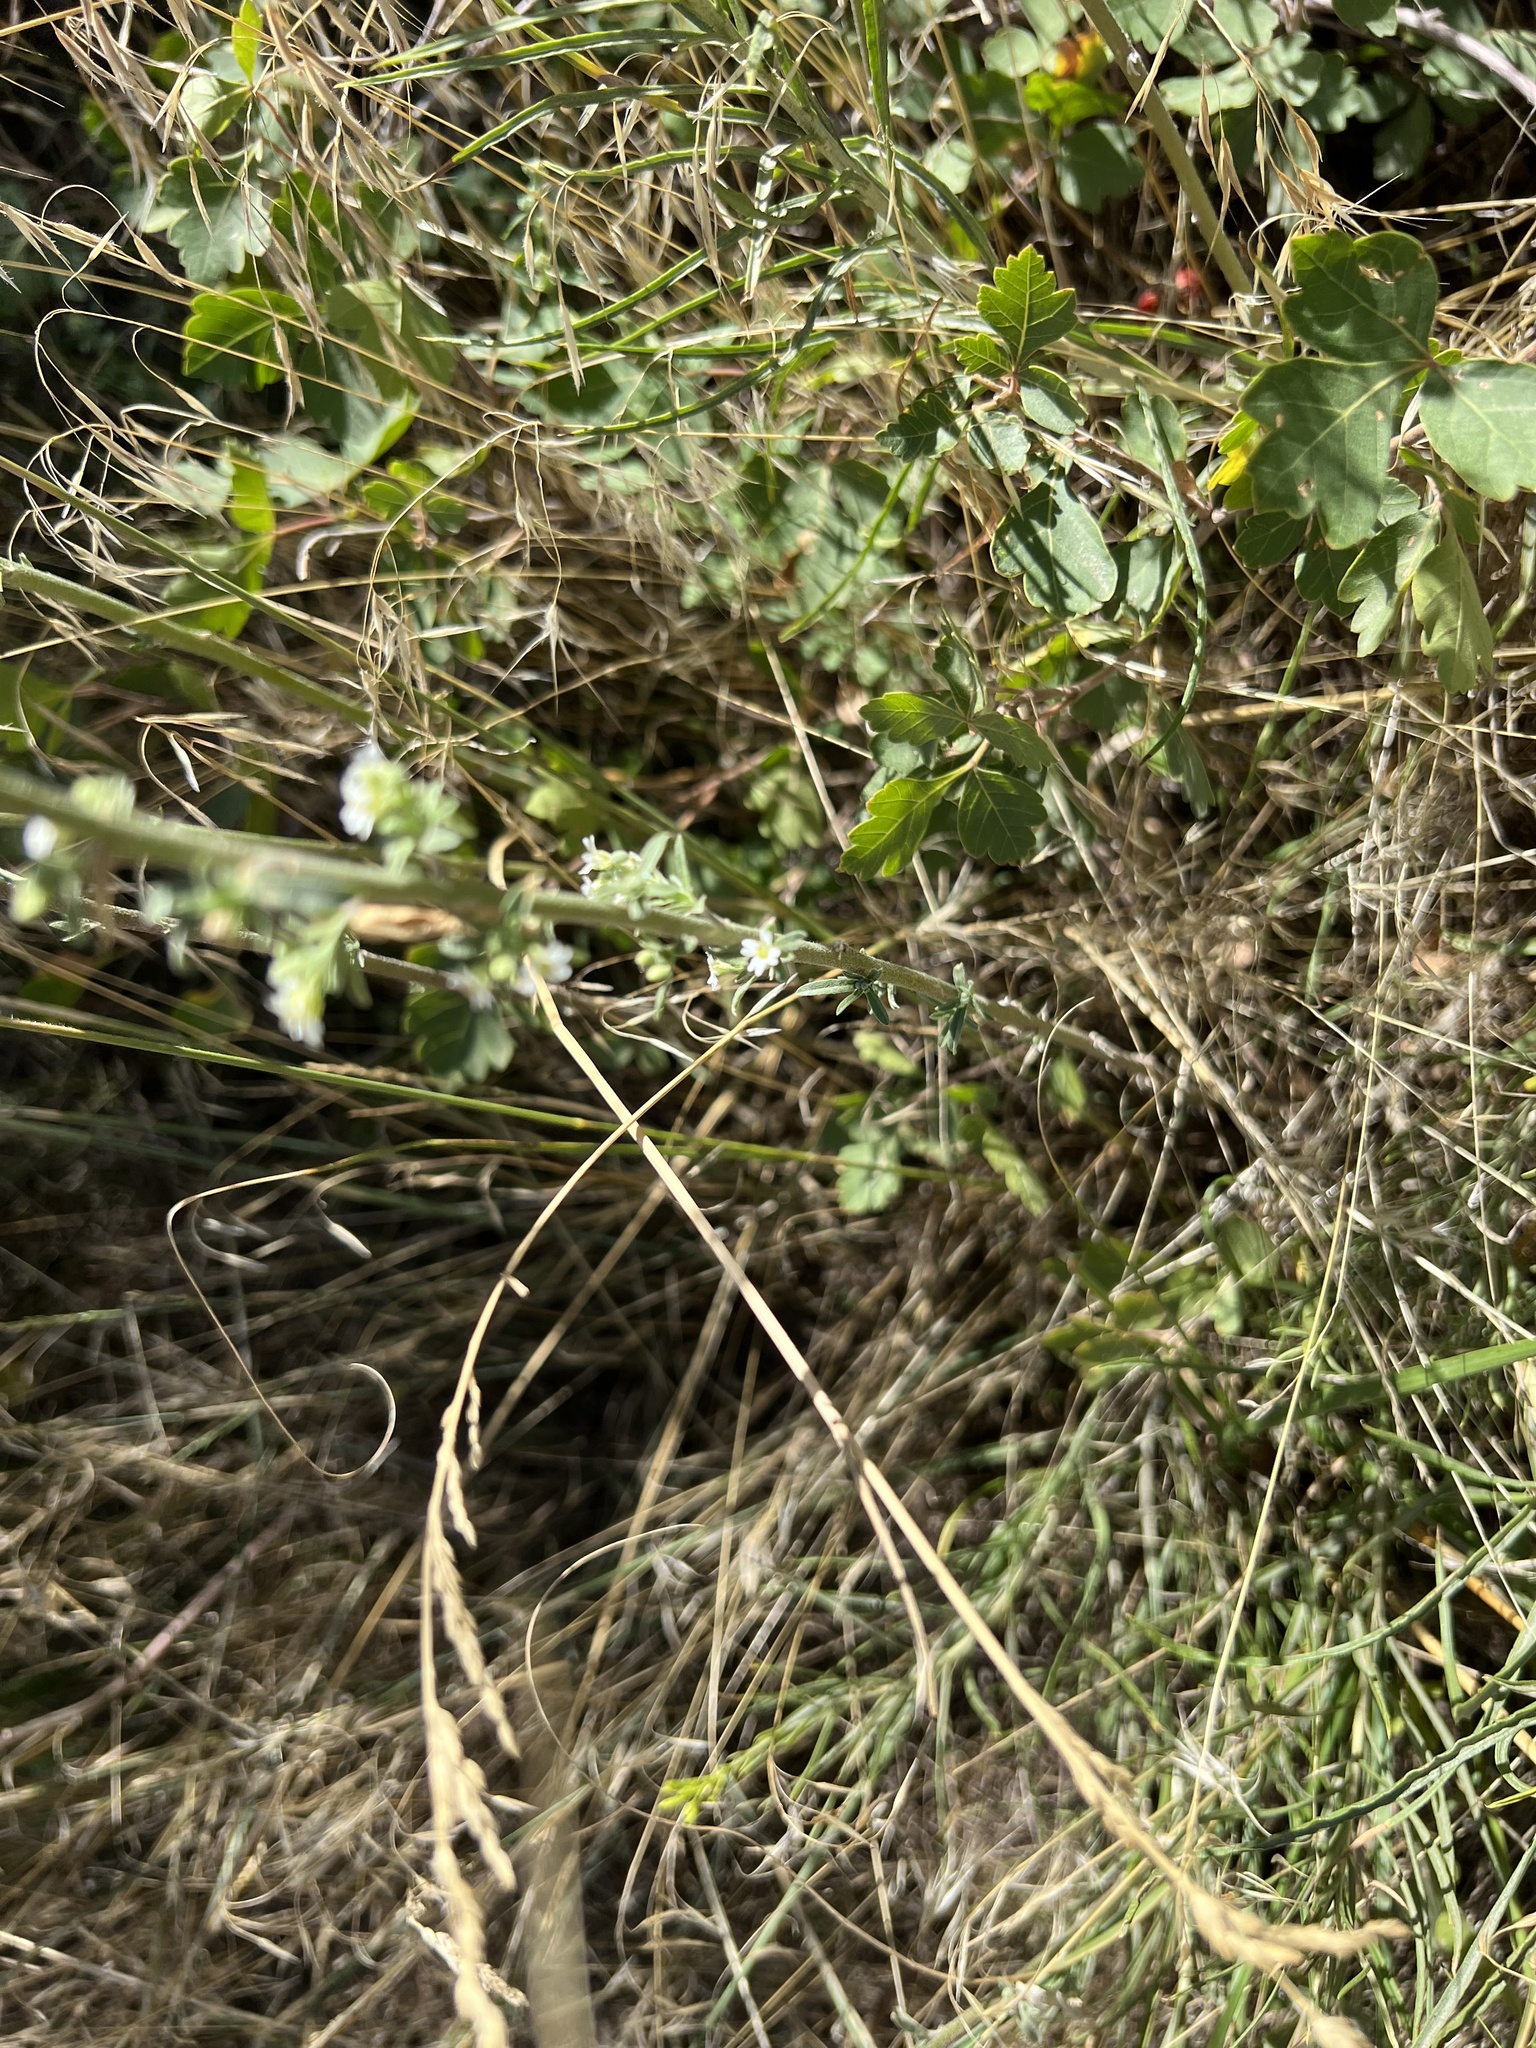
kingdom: Plantae
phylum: Tracheophyta
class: Magnoliopsida
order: Brassicales
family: Brassicaceae
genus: Berteroa
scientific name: Berteroa incana
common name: Hoary alison
